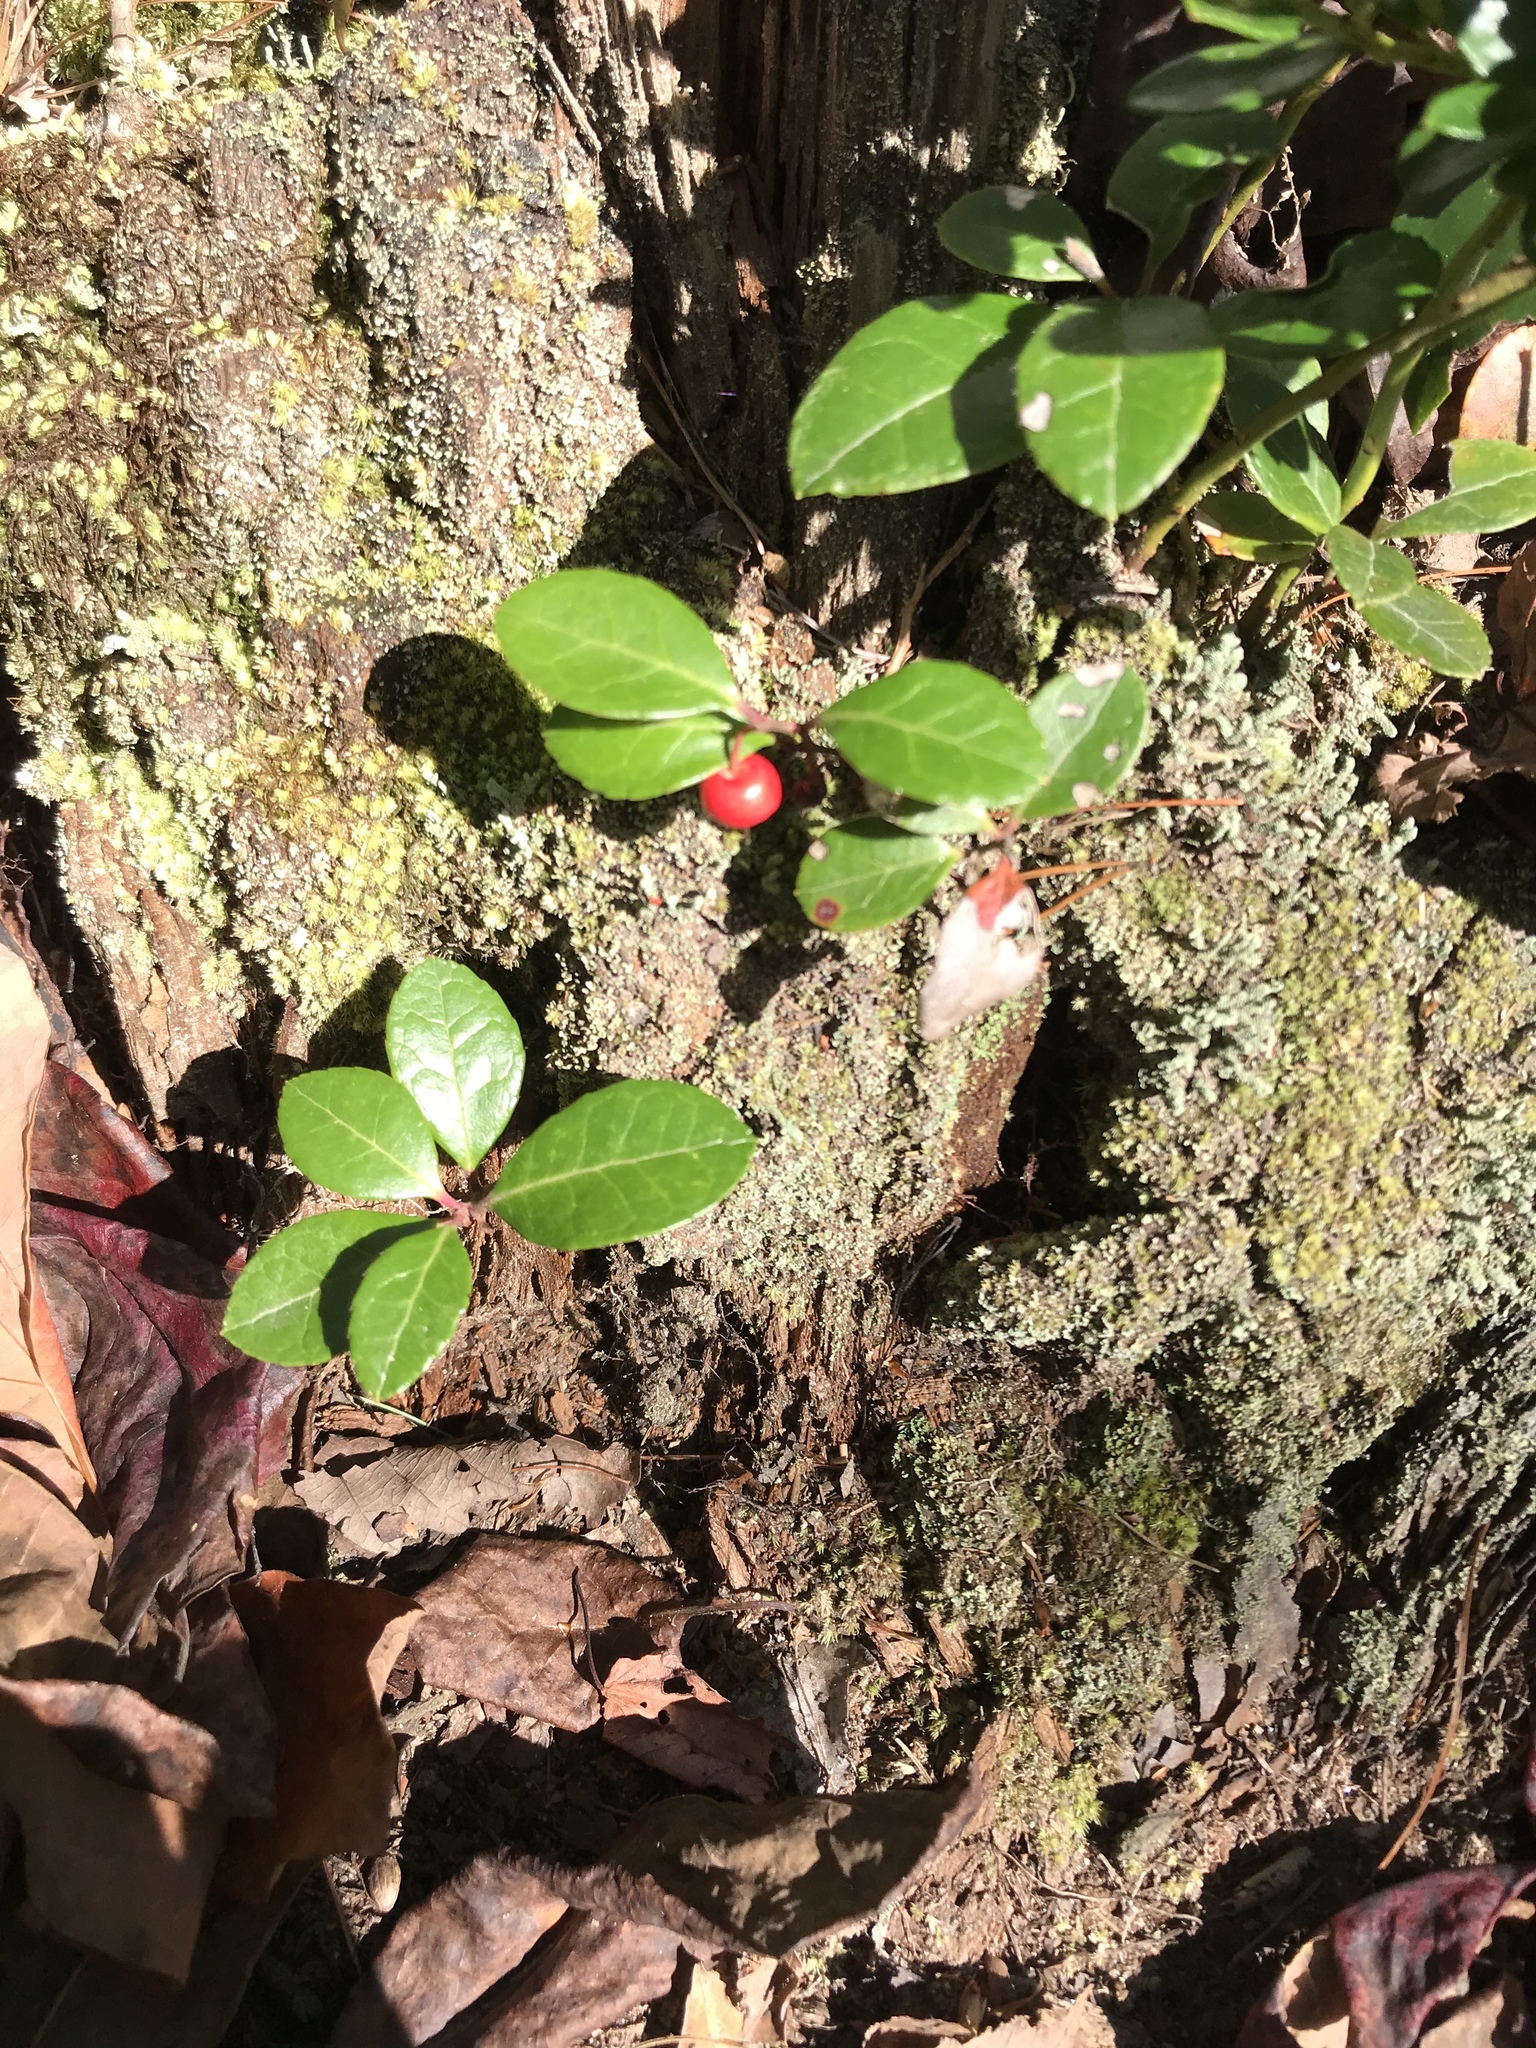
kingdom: Plantae
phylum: Tracheophyta
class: Magnoliopsida
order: Ericales
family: Ericaceae
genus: Gaultheria
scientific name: Gaultheria procumbens
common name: Checkerberry
